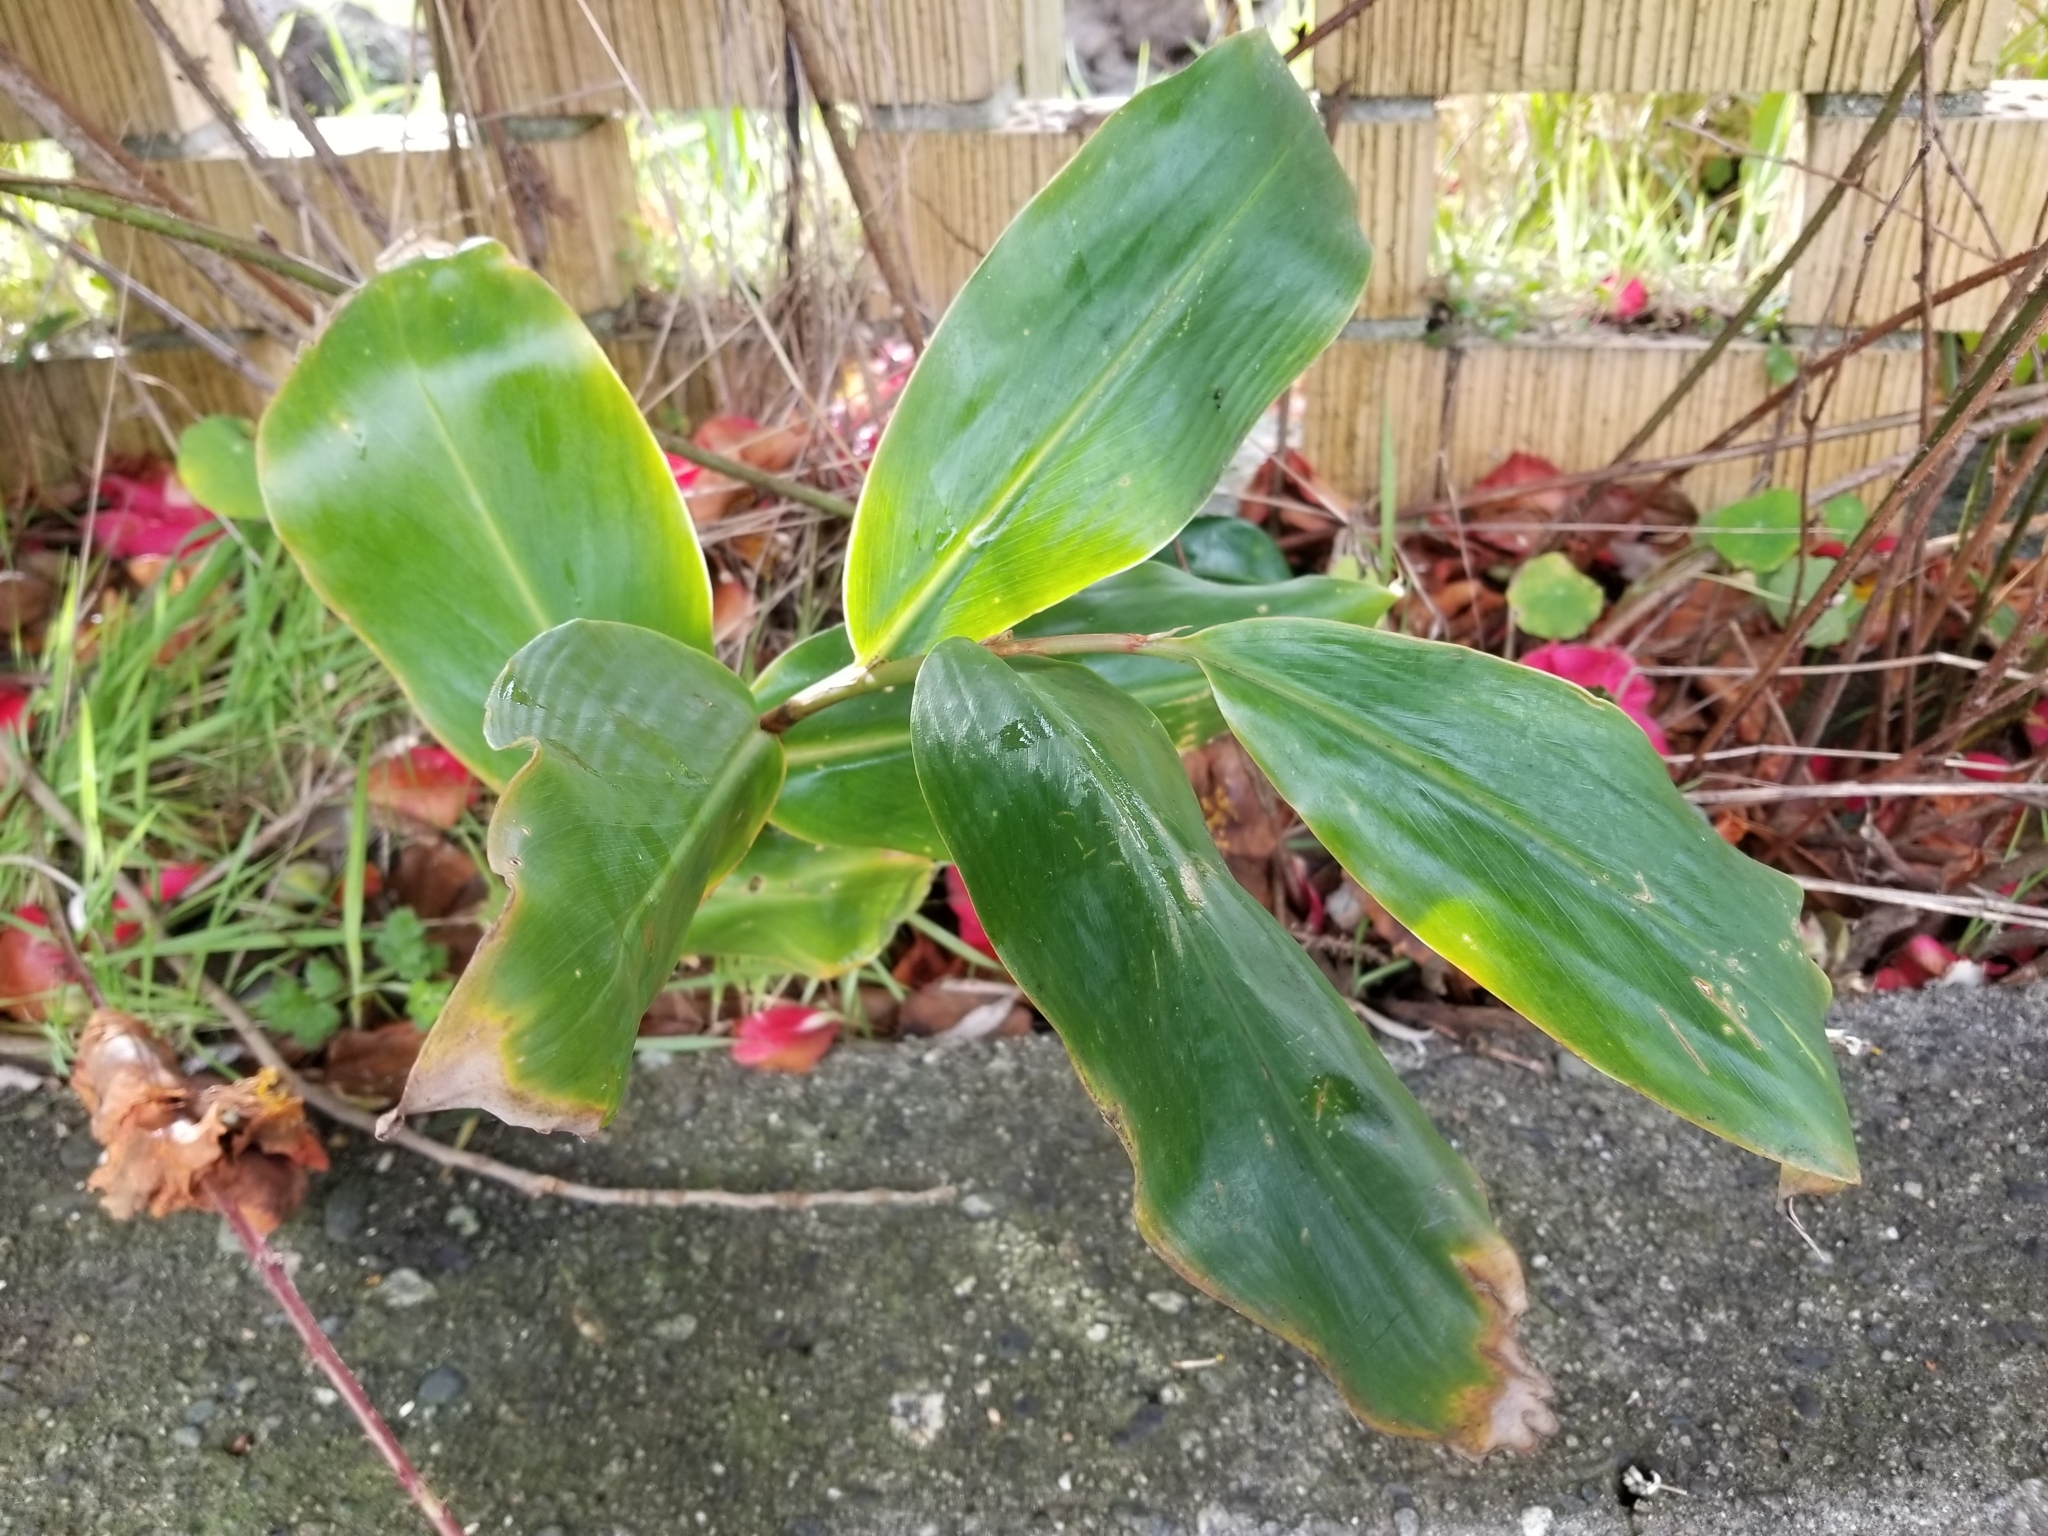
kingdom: Plantae
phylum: Tracheophyta
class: Liliopsida
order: Zingiberales
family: Zingiberaceae
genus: Hedychium
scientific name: Hedychium gardnerianum
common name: Himalayan ginger
